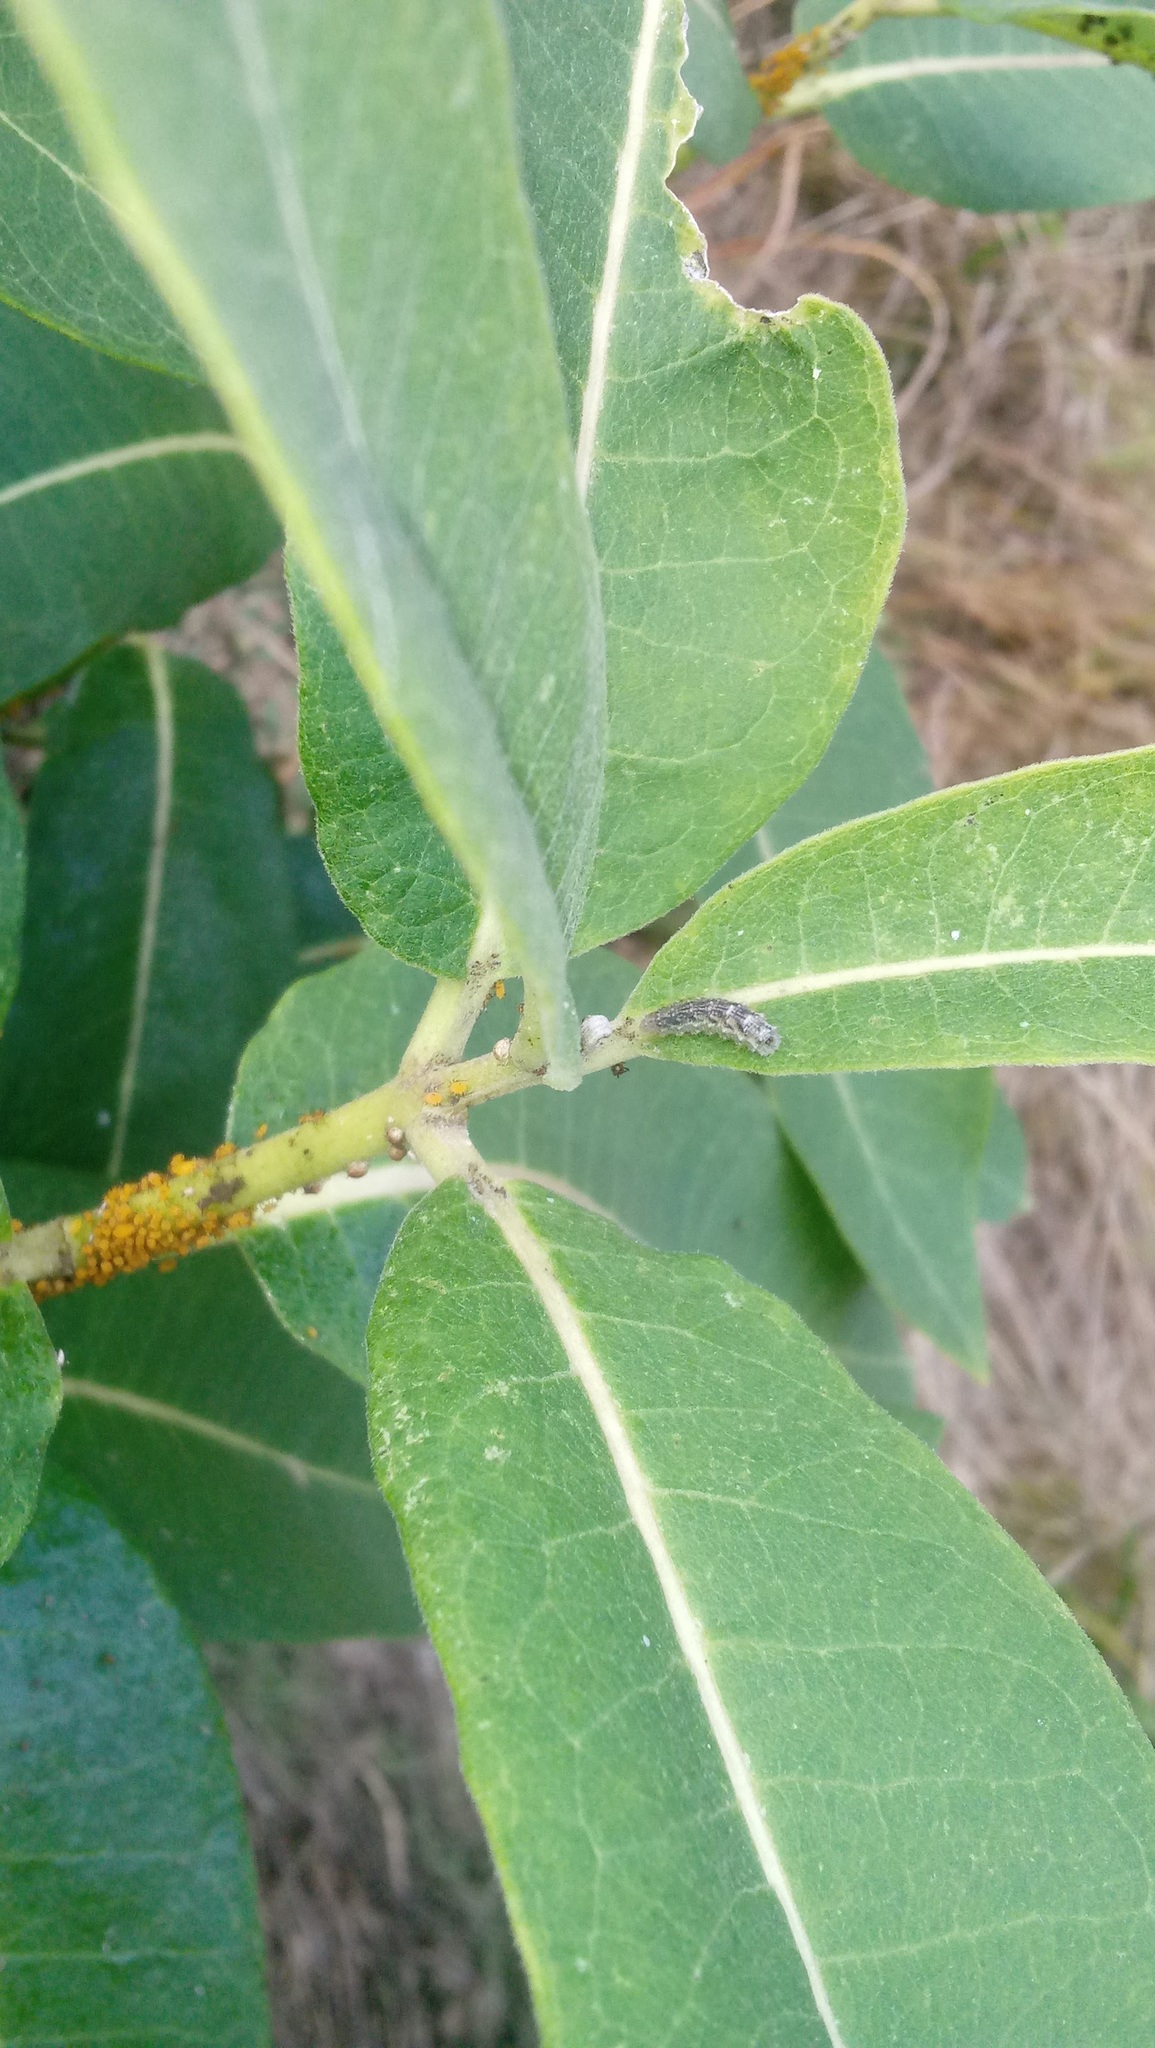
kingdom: Animalia
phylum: Arthropoda
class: Insecta
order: Hemiptera
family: Aphididae
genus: Aphis
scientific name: Aphis nerii
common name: Oleander aphid
